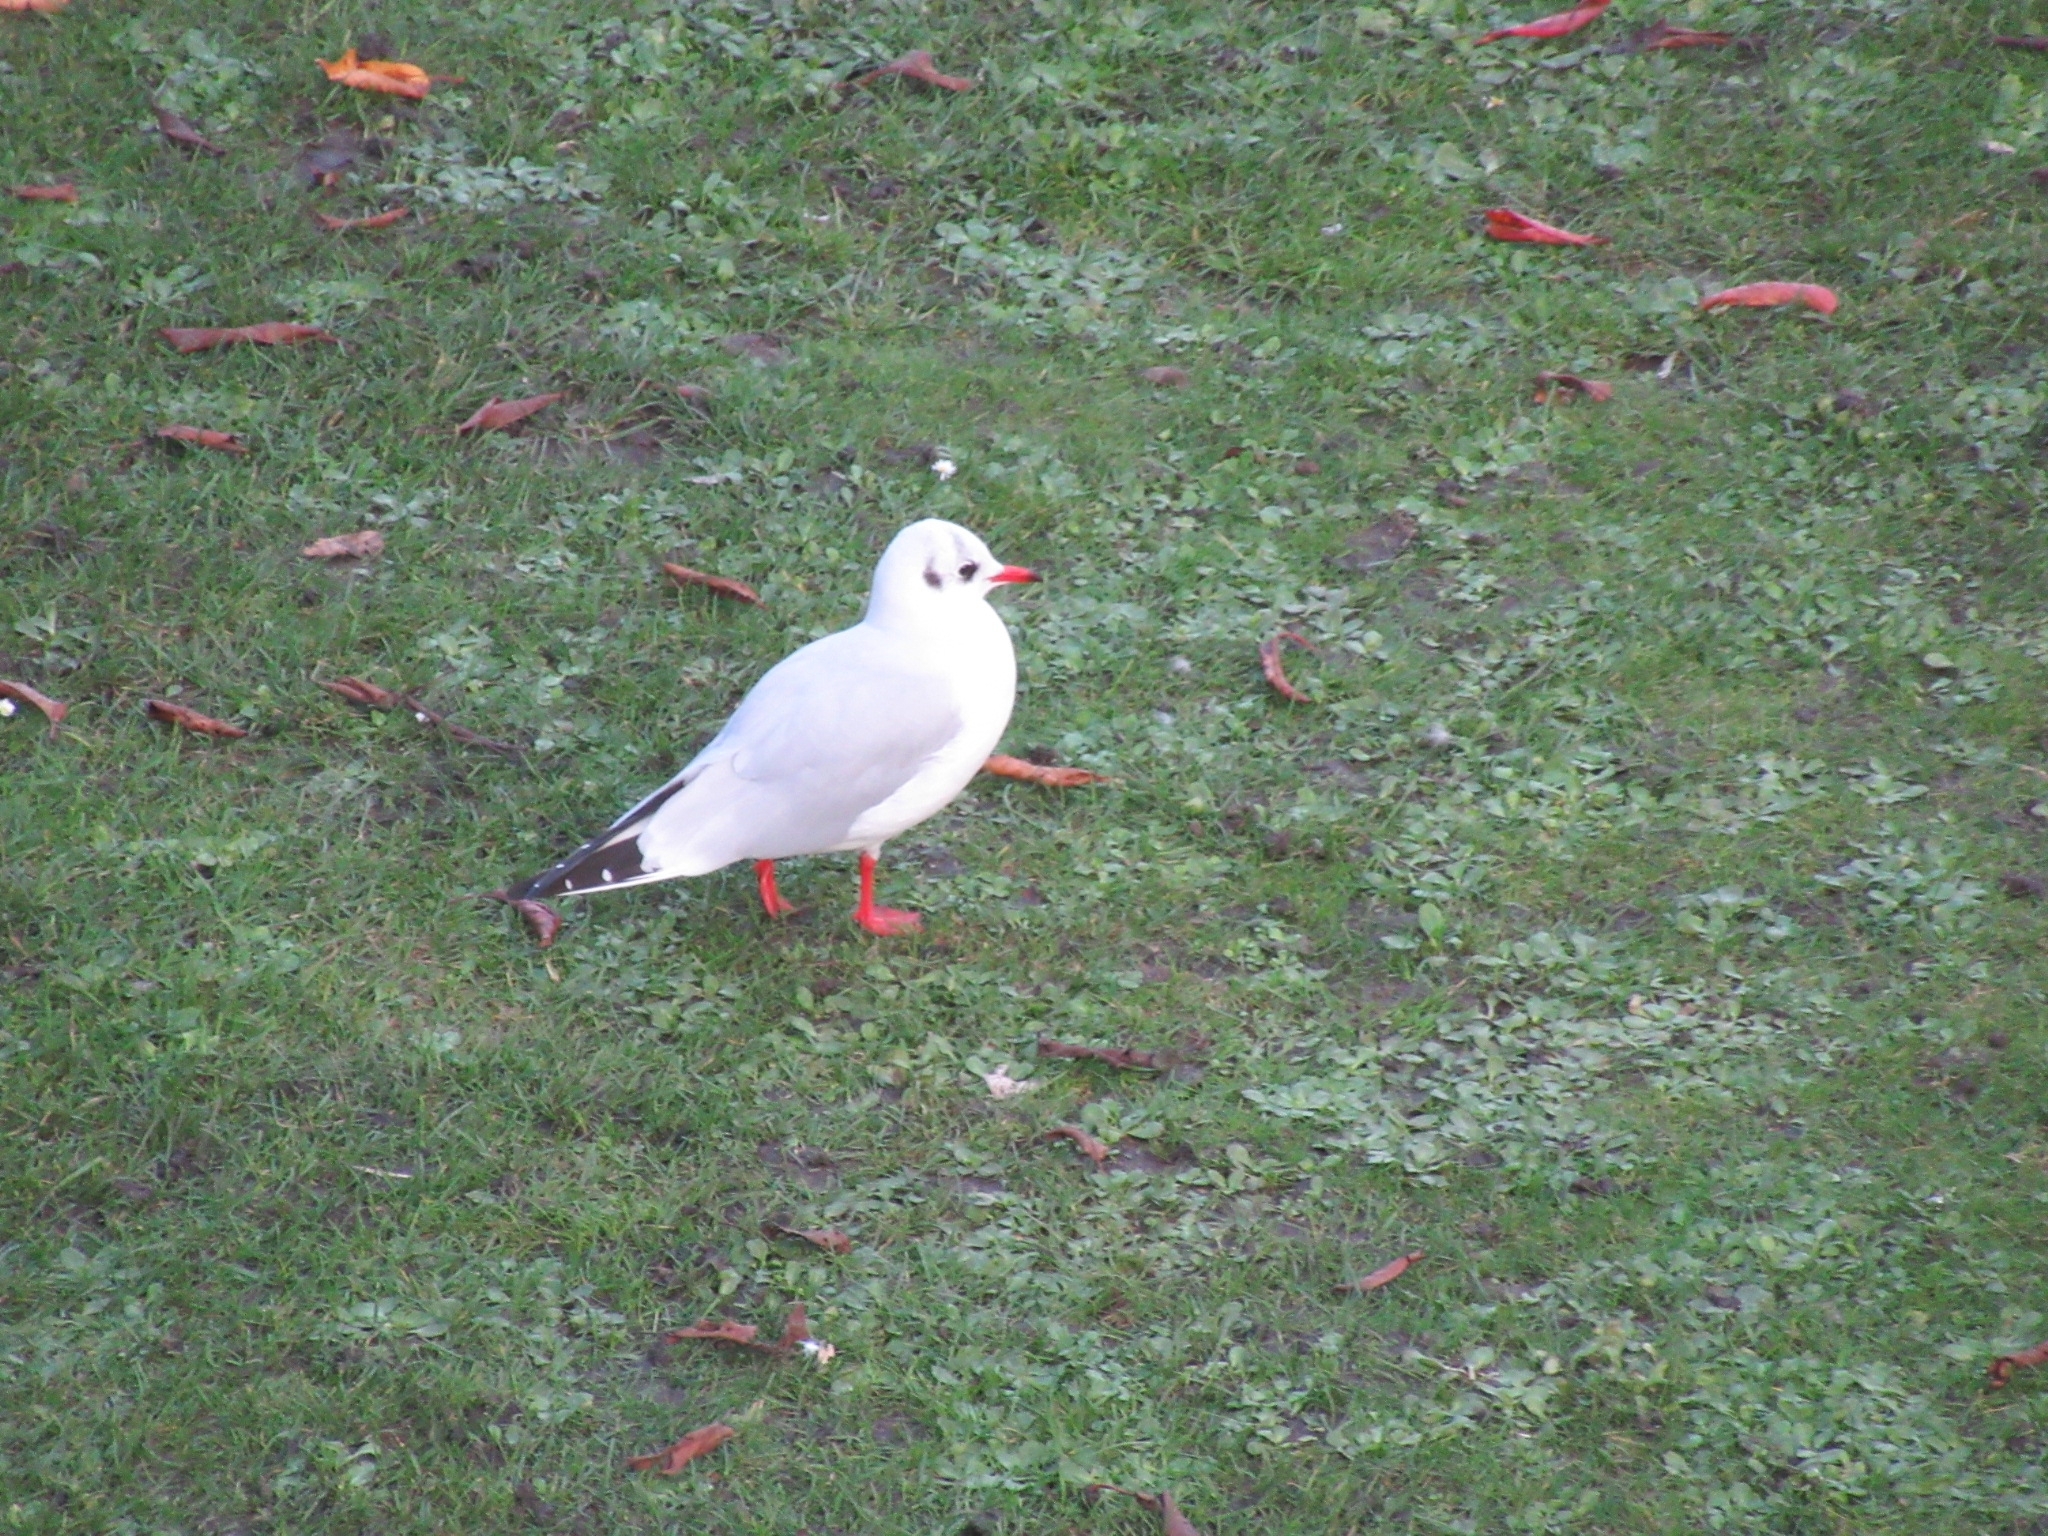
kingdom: Animalia
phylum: Chordata
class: Aves
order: Charadriiformes
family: Laridae
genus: Chroicocephalus
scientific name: Chroicocephalus ridibundus
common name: Black-headed gull
